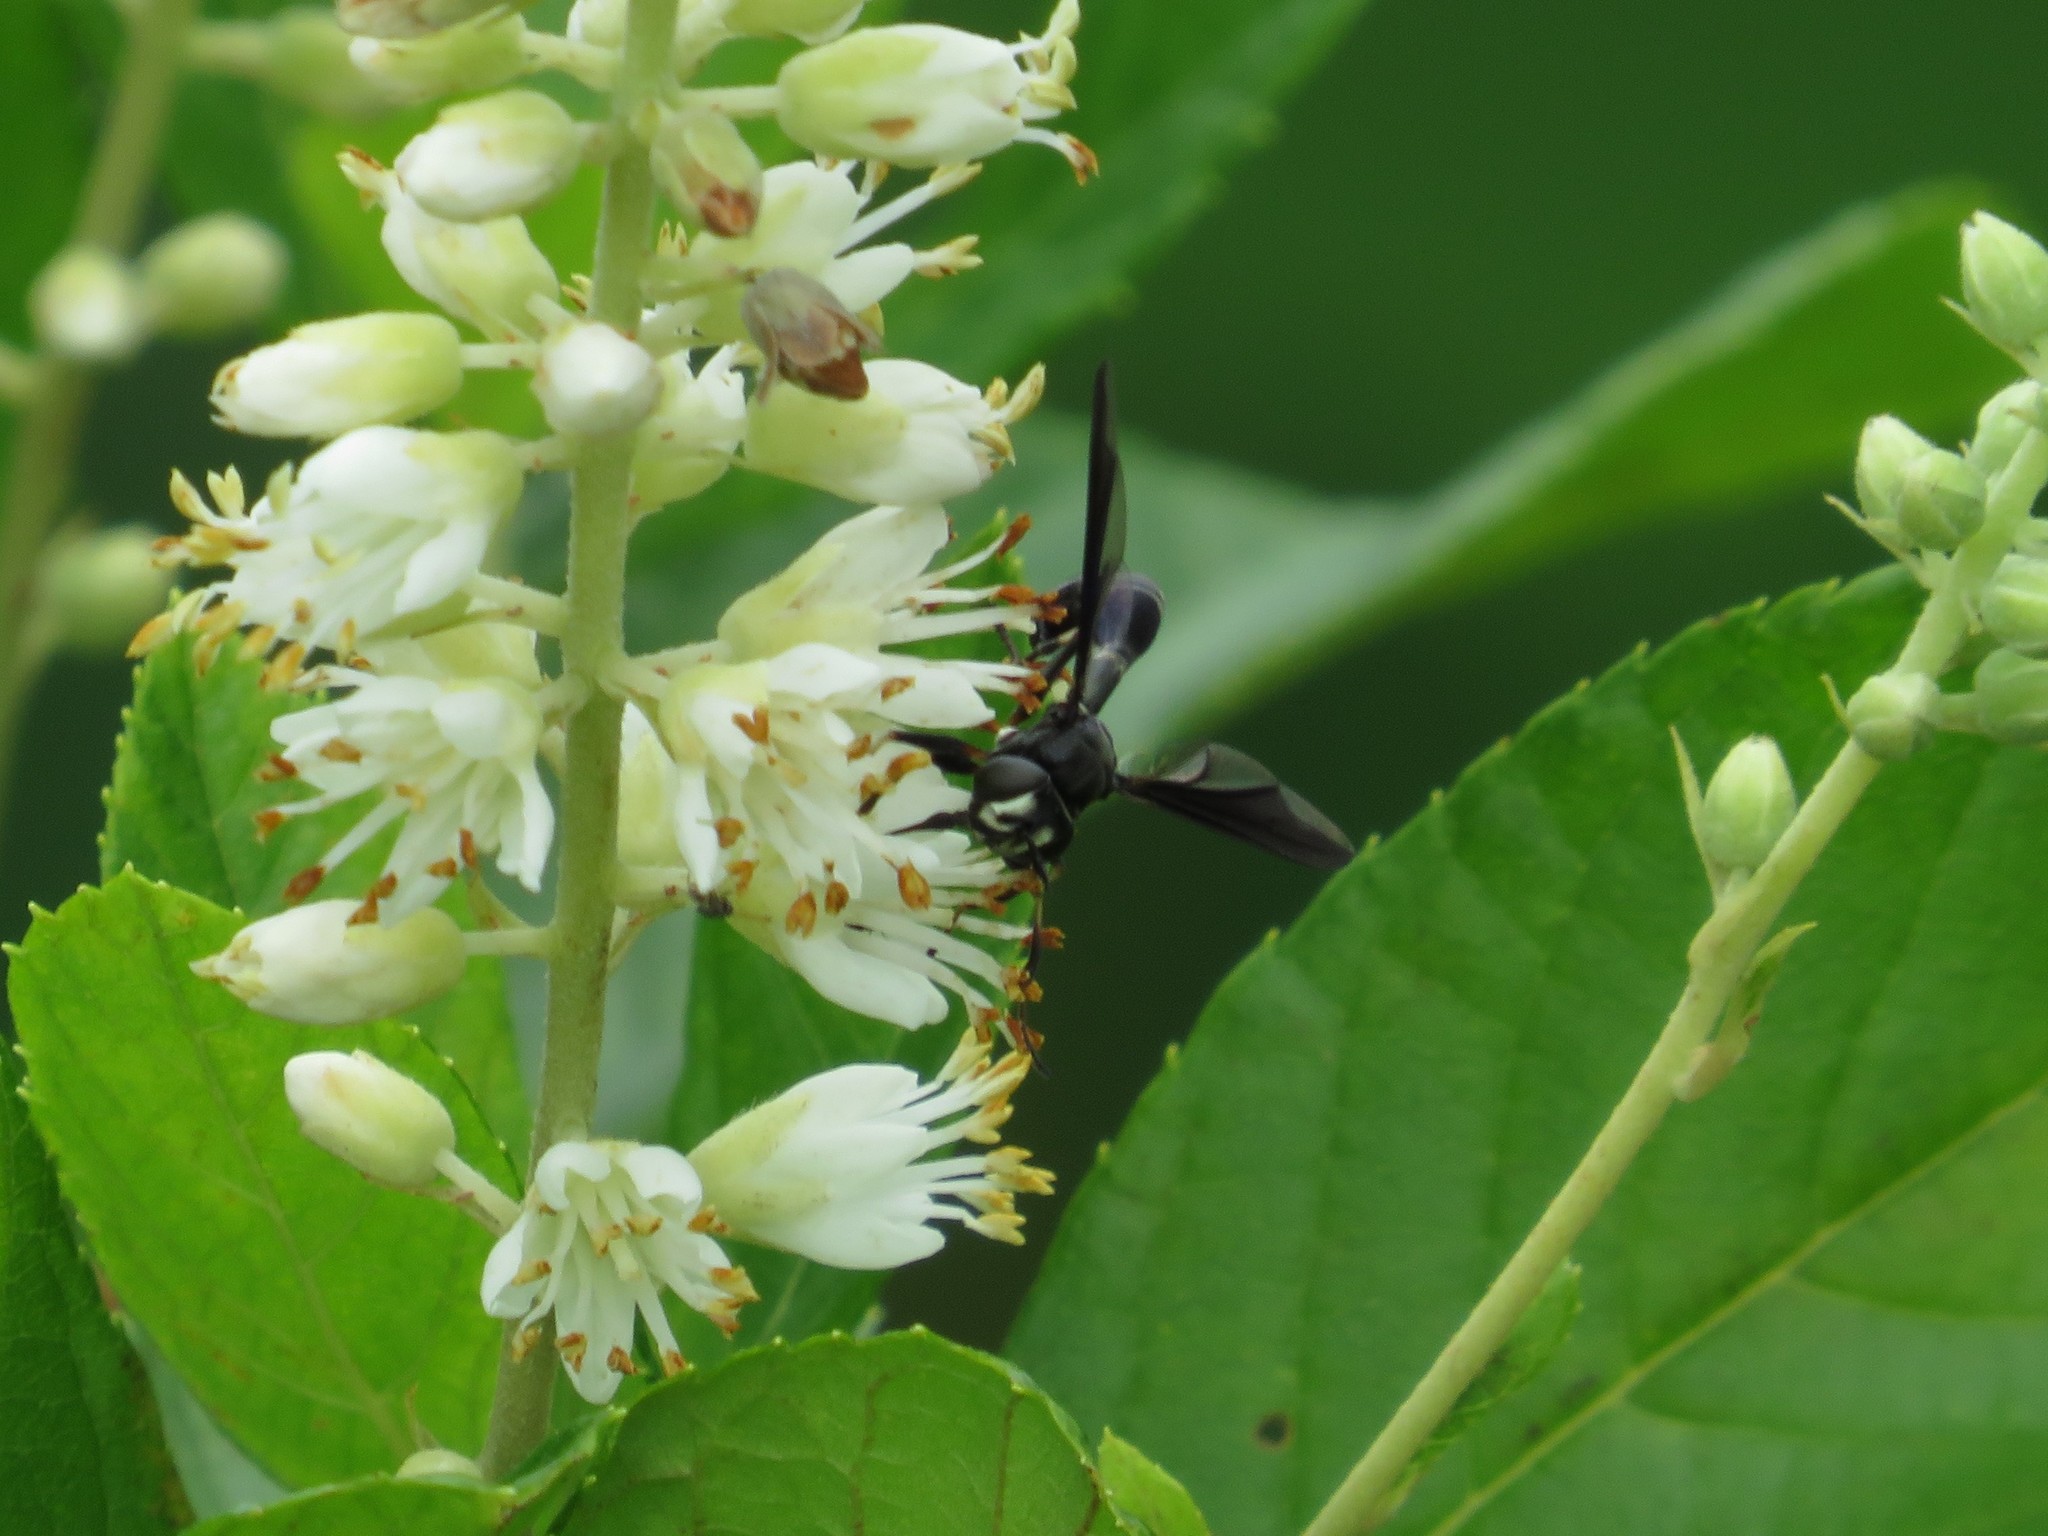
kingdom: Animalia
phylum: Arthropoda
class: Insecta
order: Diptera
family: Conopidae
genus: Physocephala
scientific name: Physocephala tibialis
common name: Common eastern physocephala
